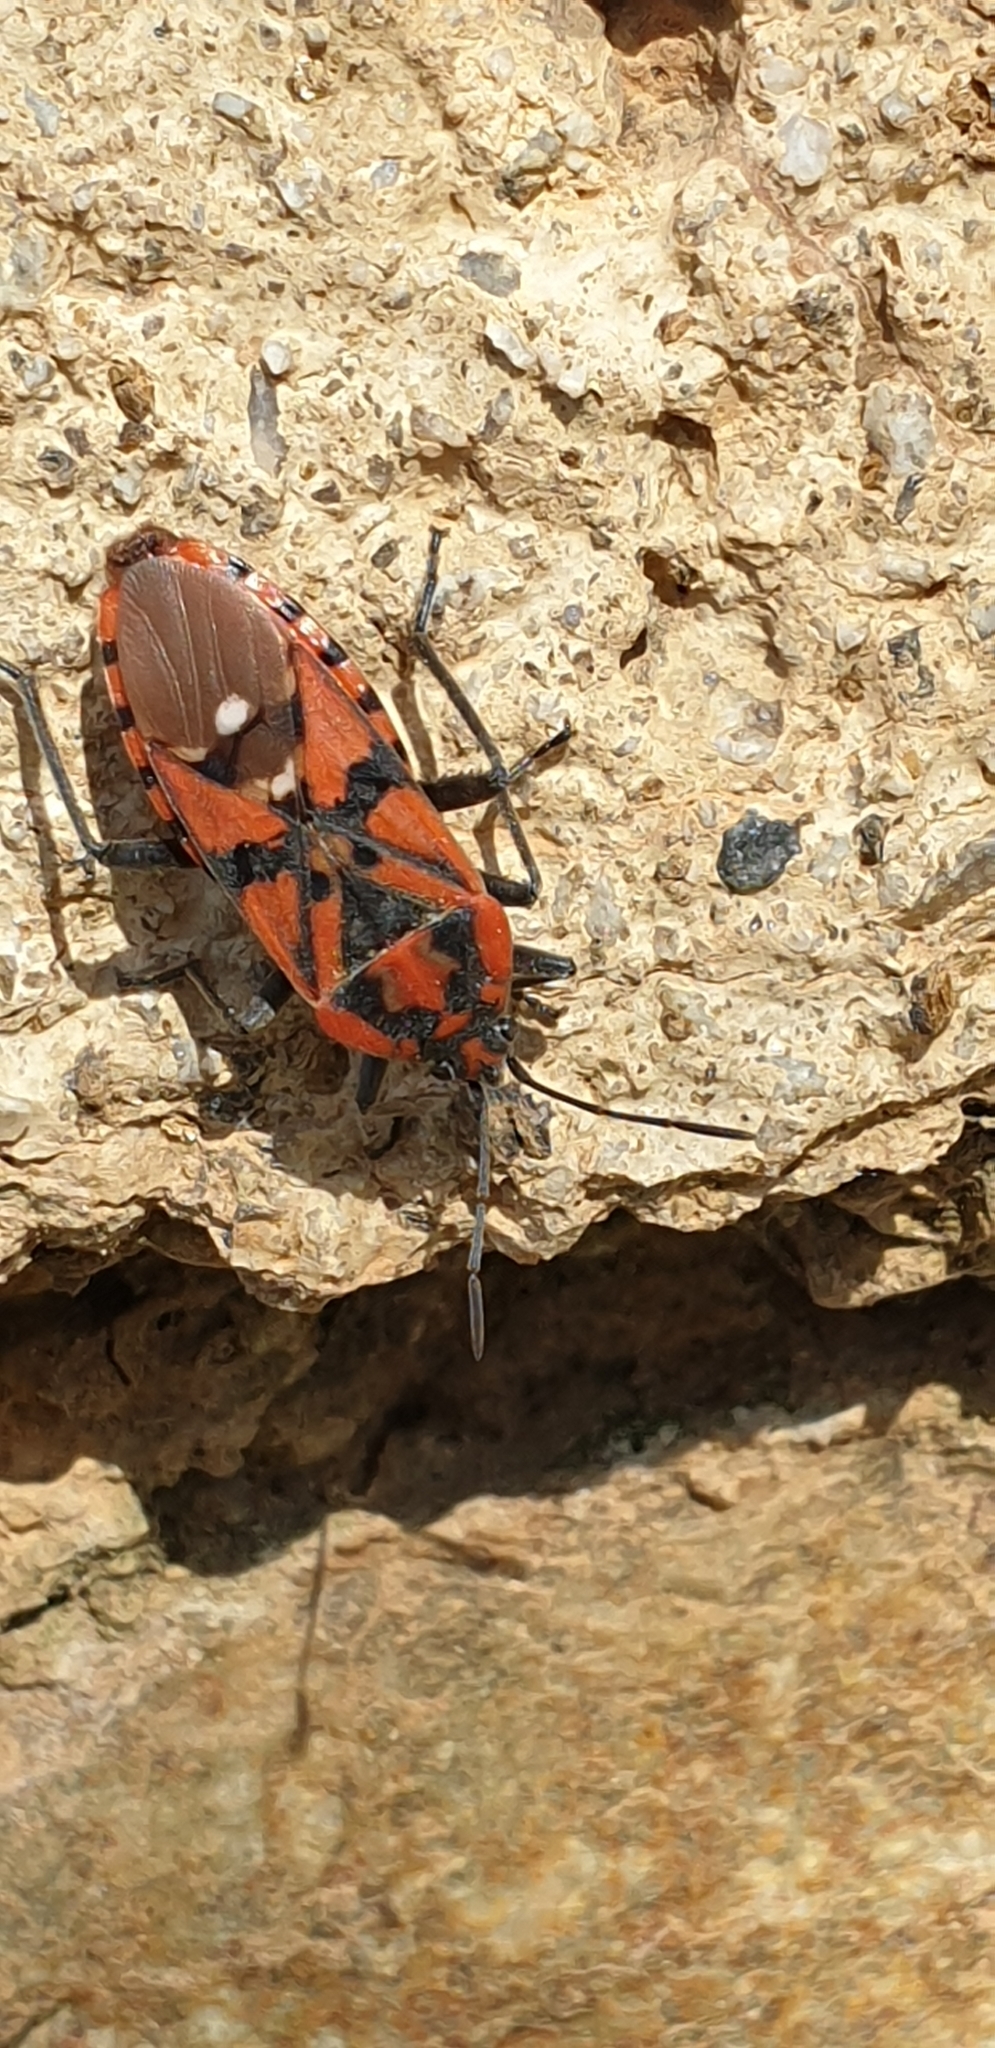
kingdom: Animalia
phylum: Arthropoda
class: Insecta
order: Hemiptera
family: Lygaeidae
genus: Spilostethus
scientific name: Spilostethus pandurus
